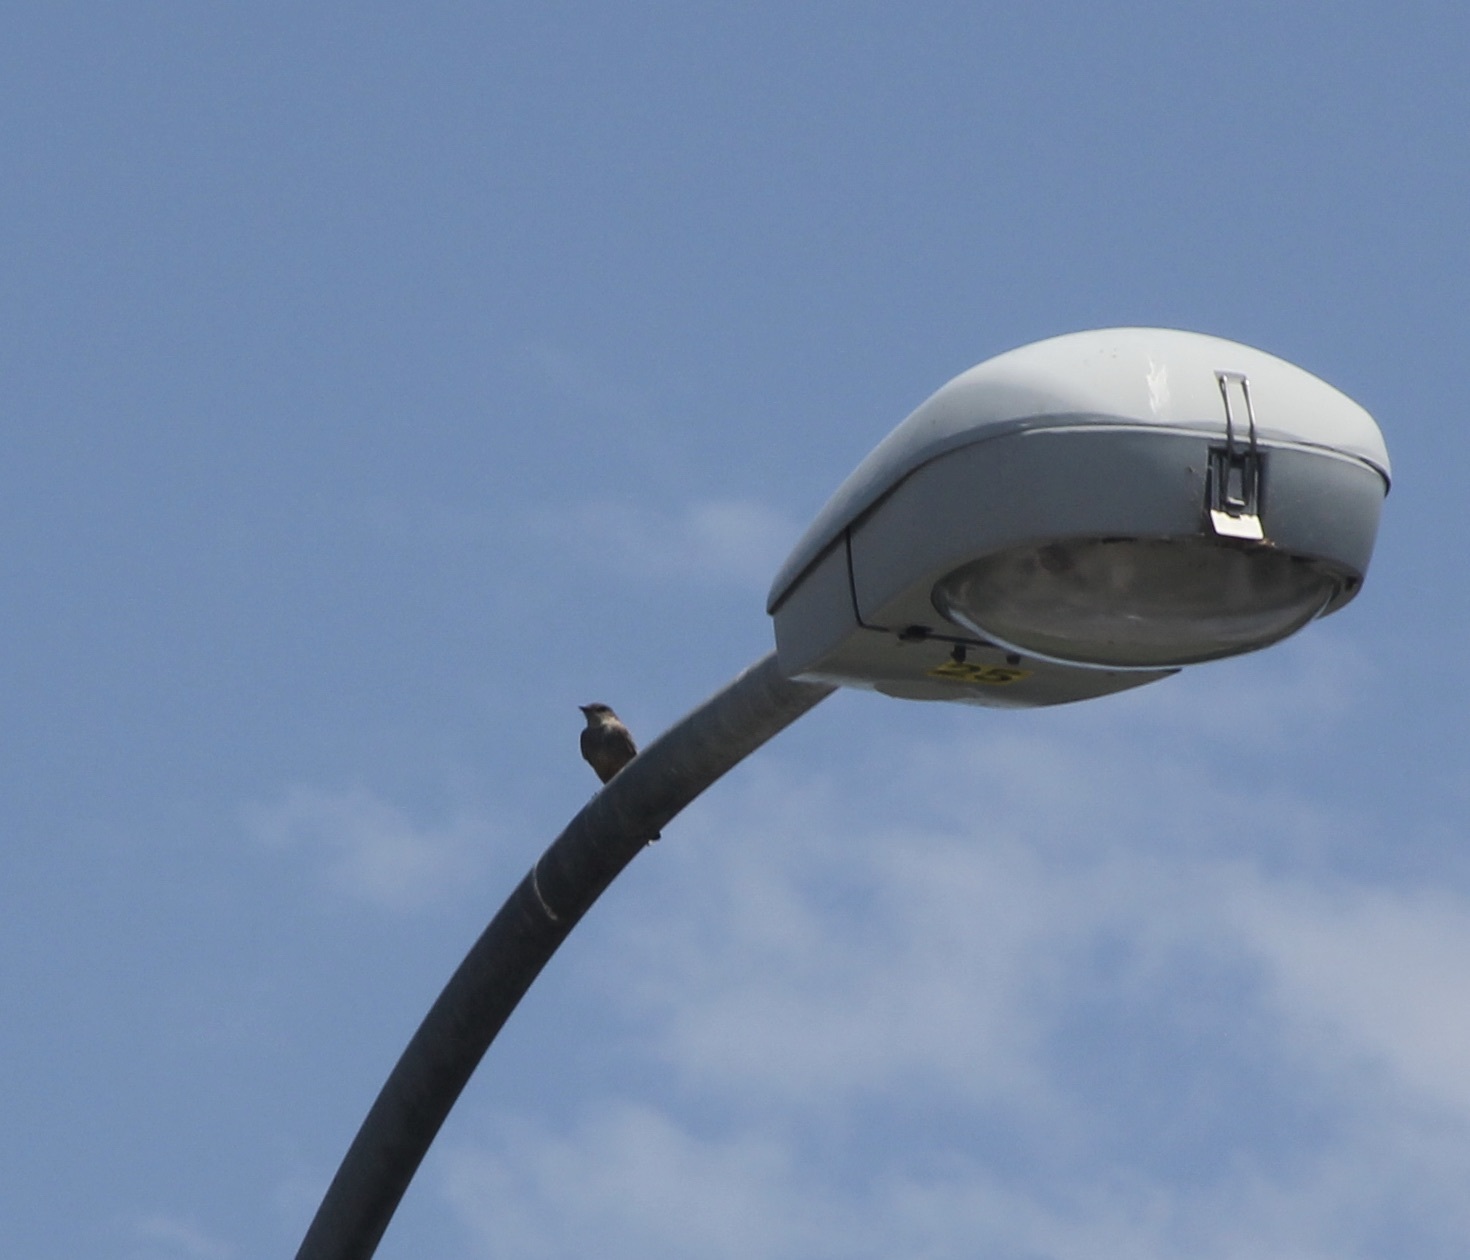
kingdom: Animalia
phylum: Chordata
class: Aves
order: Passeriformes
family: Tyrannidae
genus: Sayornis
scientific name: Sayornis saya
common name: Say's phoebe
